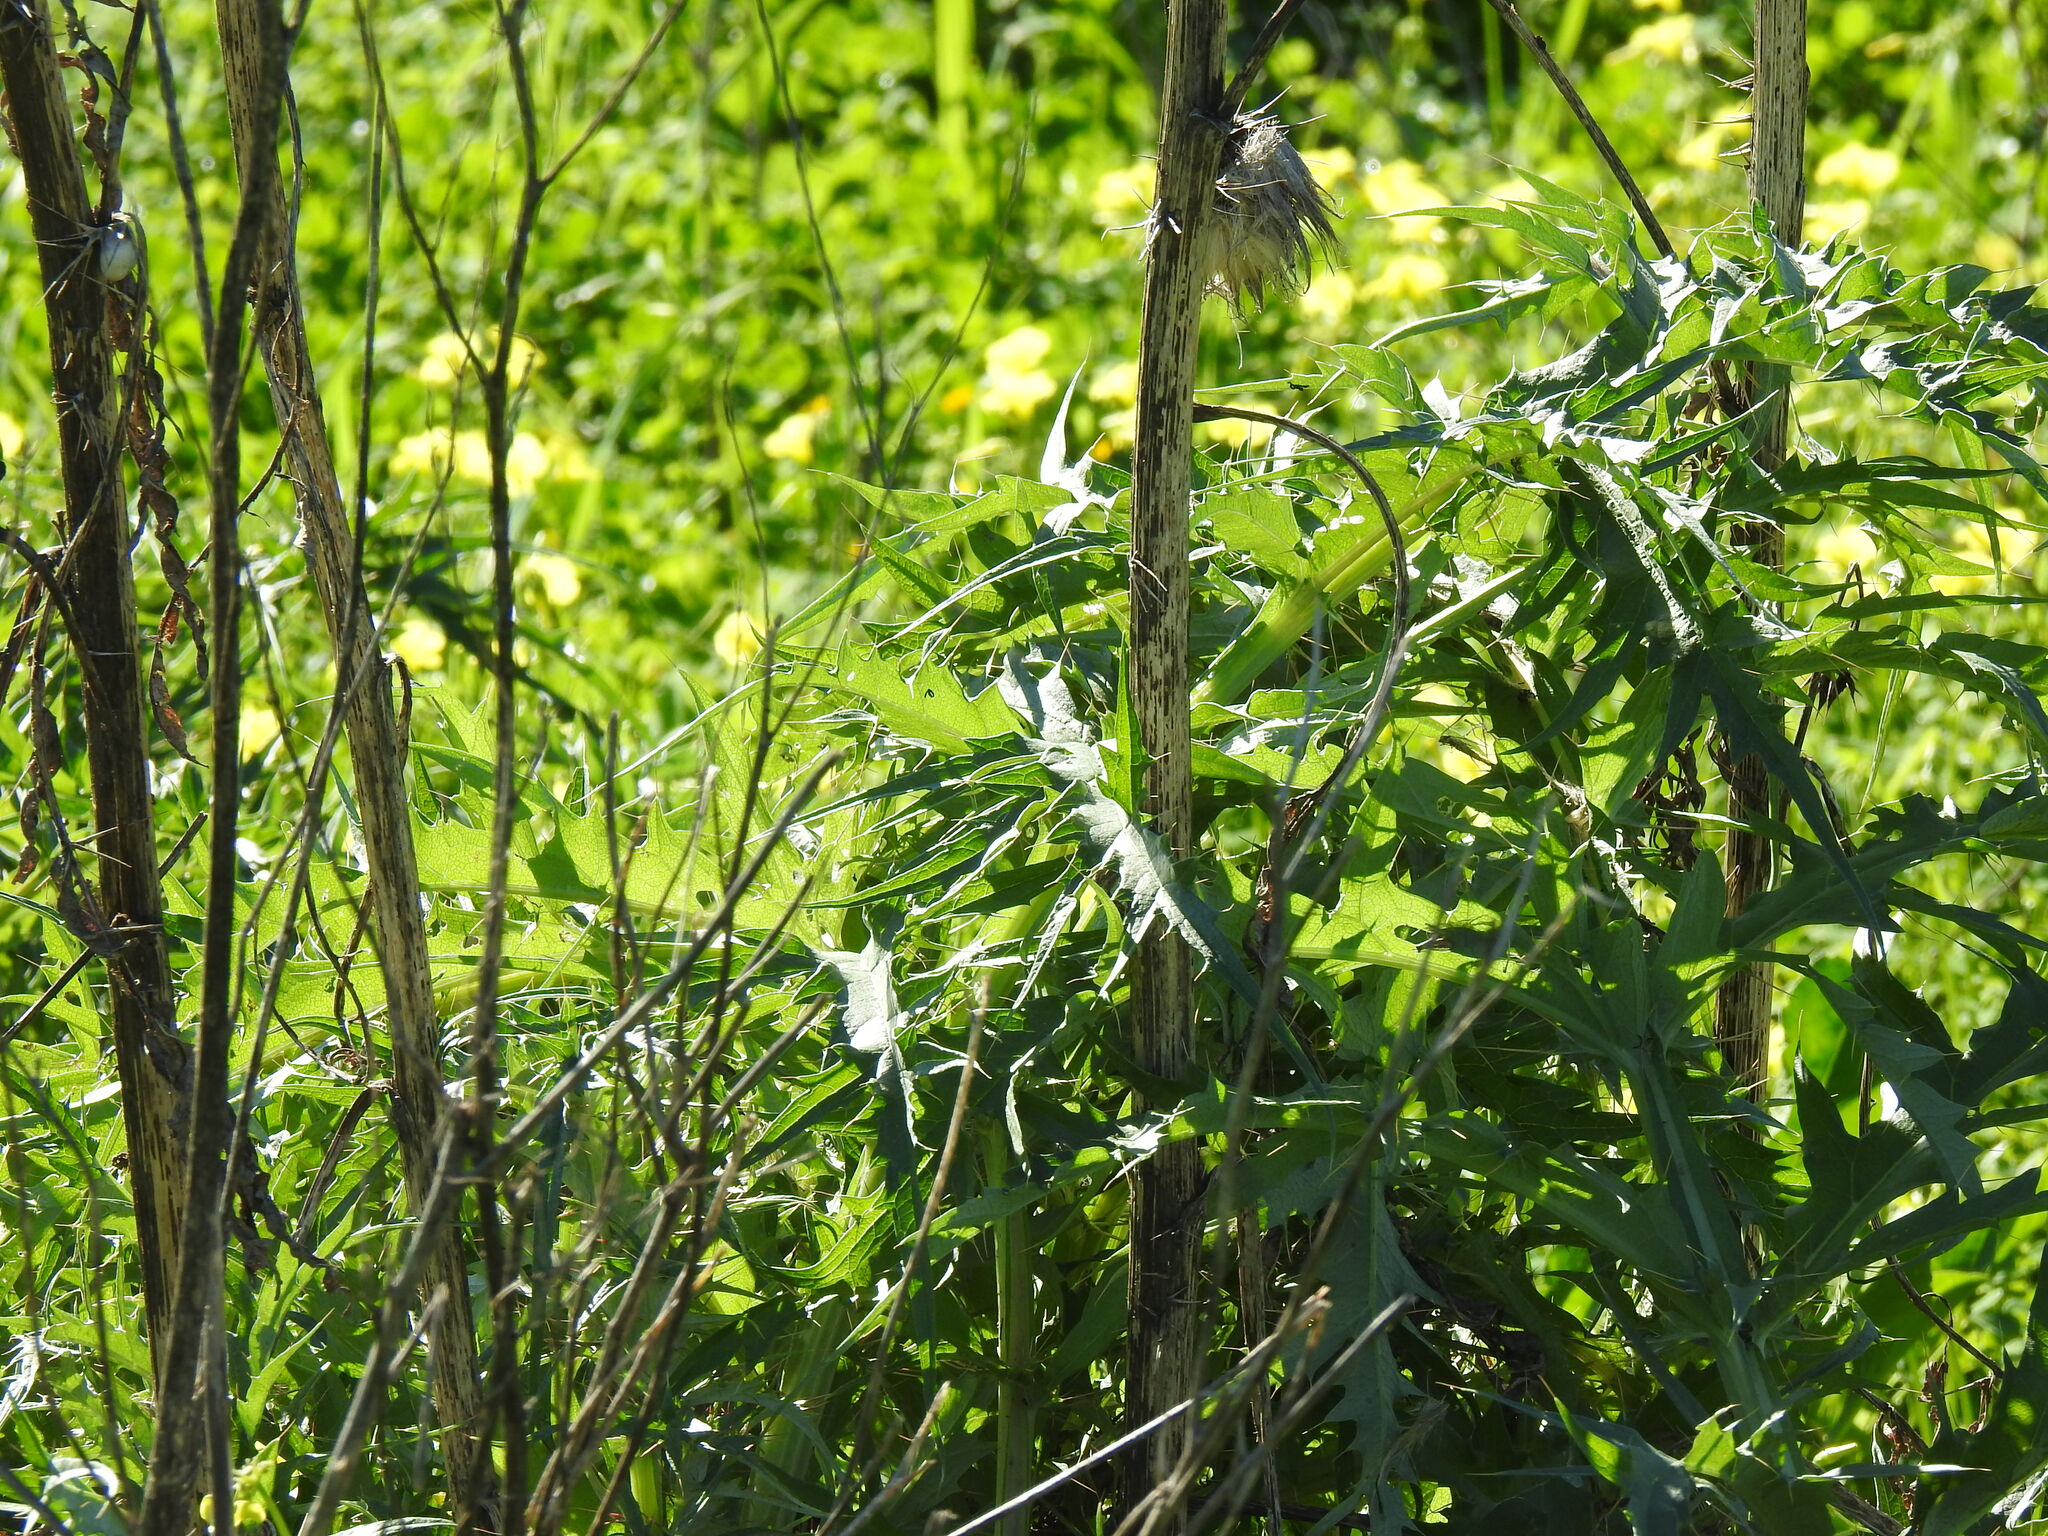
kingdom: Plantae
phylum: Tracheophyta
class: Magnoliopsida
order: Asterales
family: Asteraceae
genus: Cynara
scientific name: Cynara cardunculus
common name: Globe artichoke
